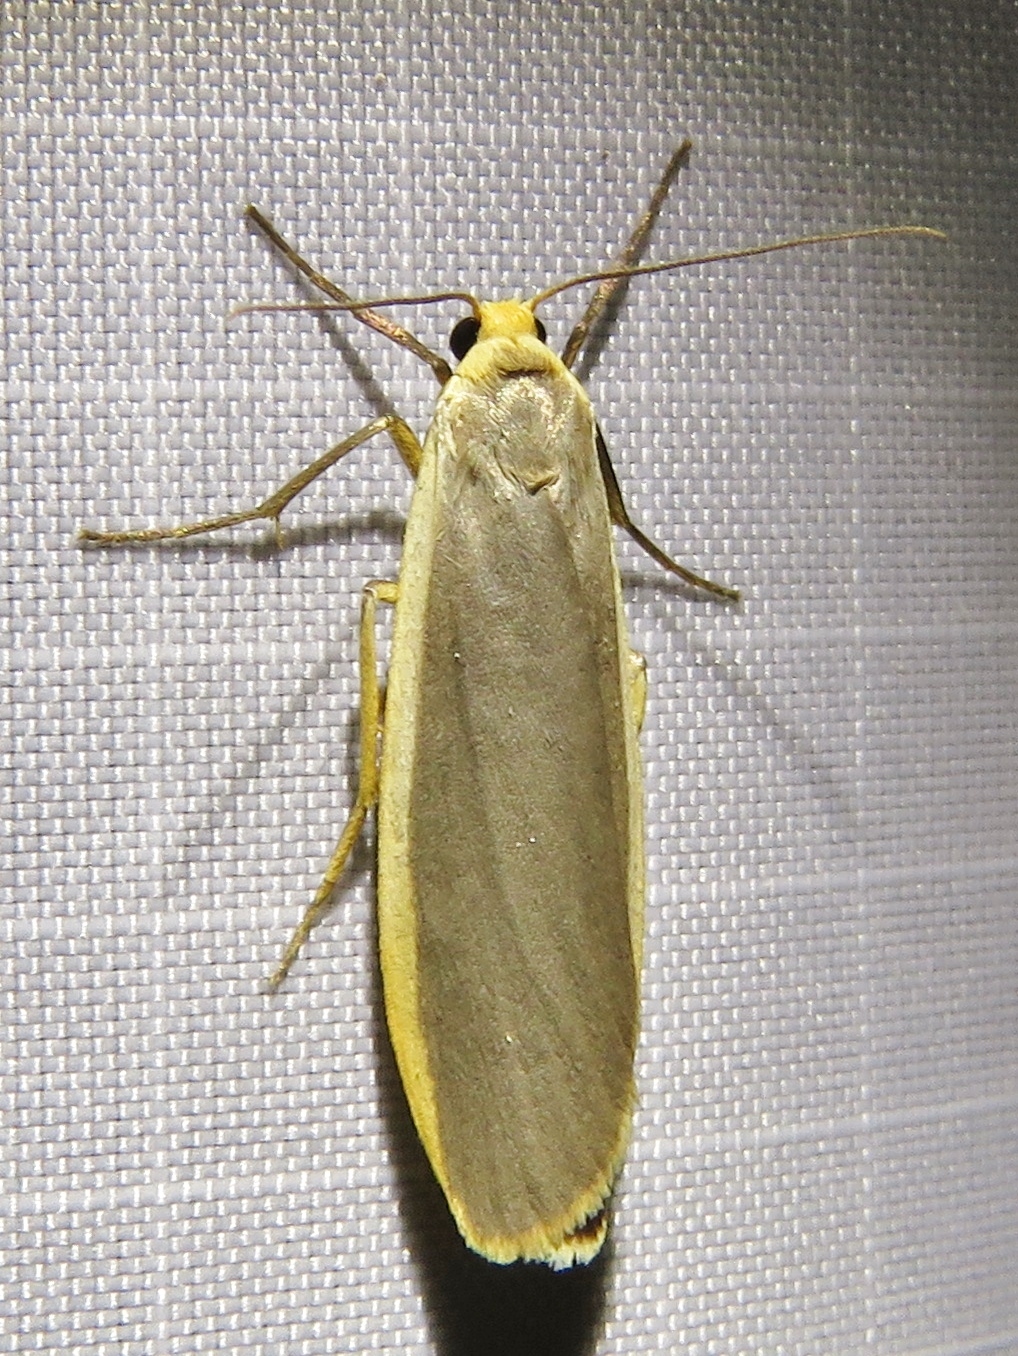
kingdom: Animalia
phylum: Arthropoda
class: Insecta
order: Lepidoptera
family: Erebidae
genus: Nyea
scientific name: Nyea lurideola
